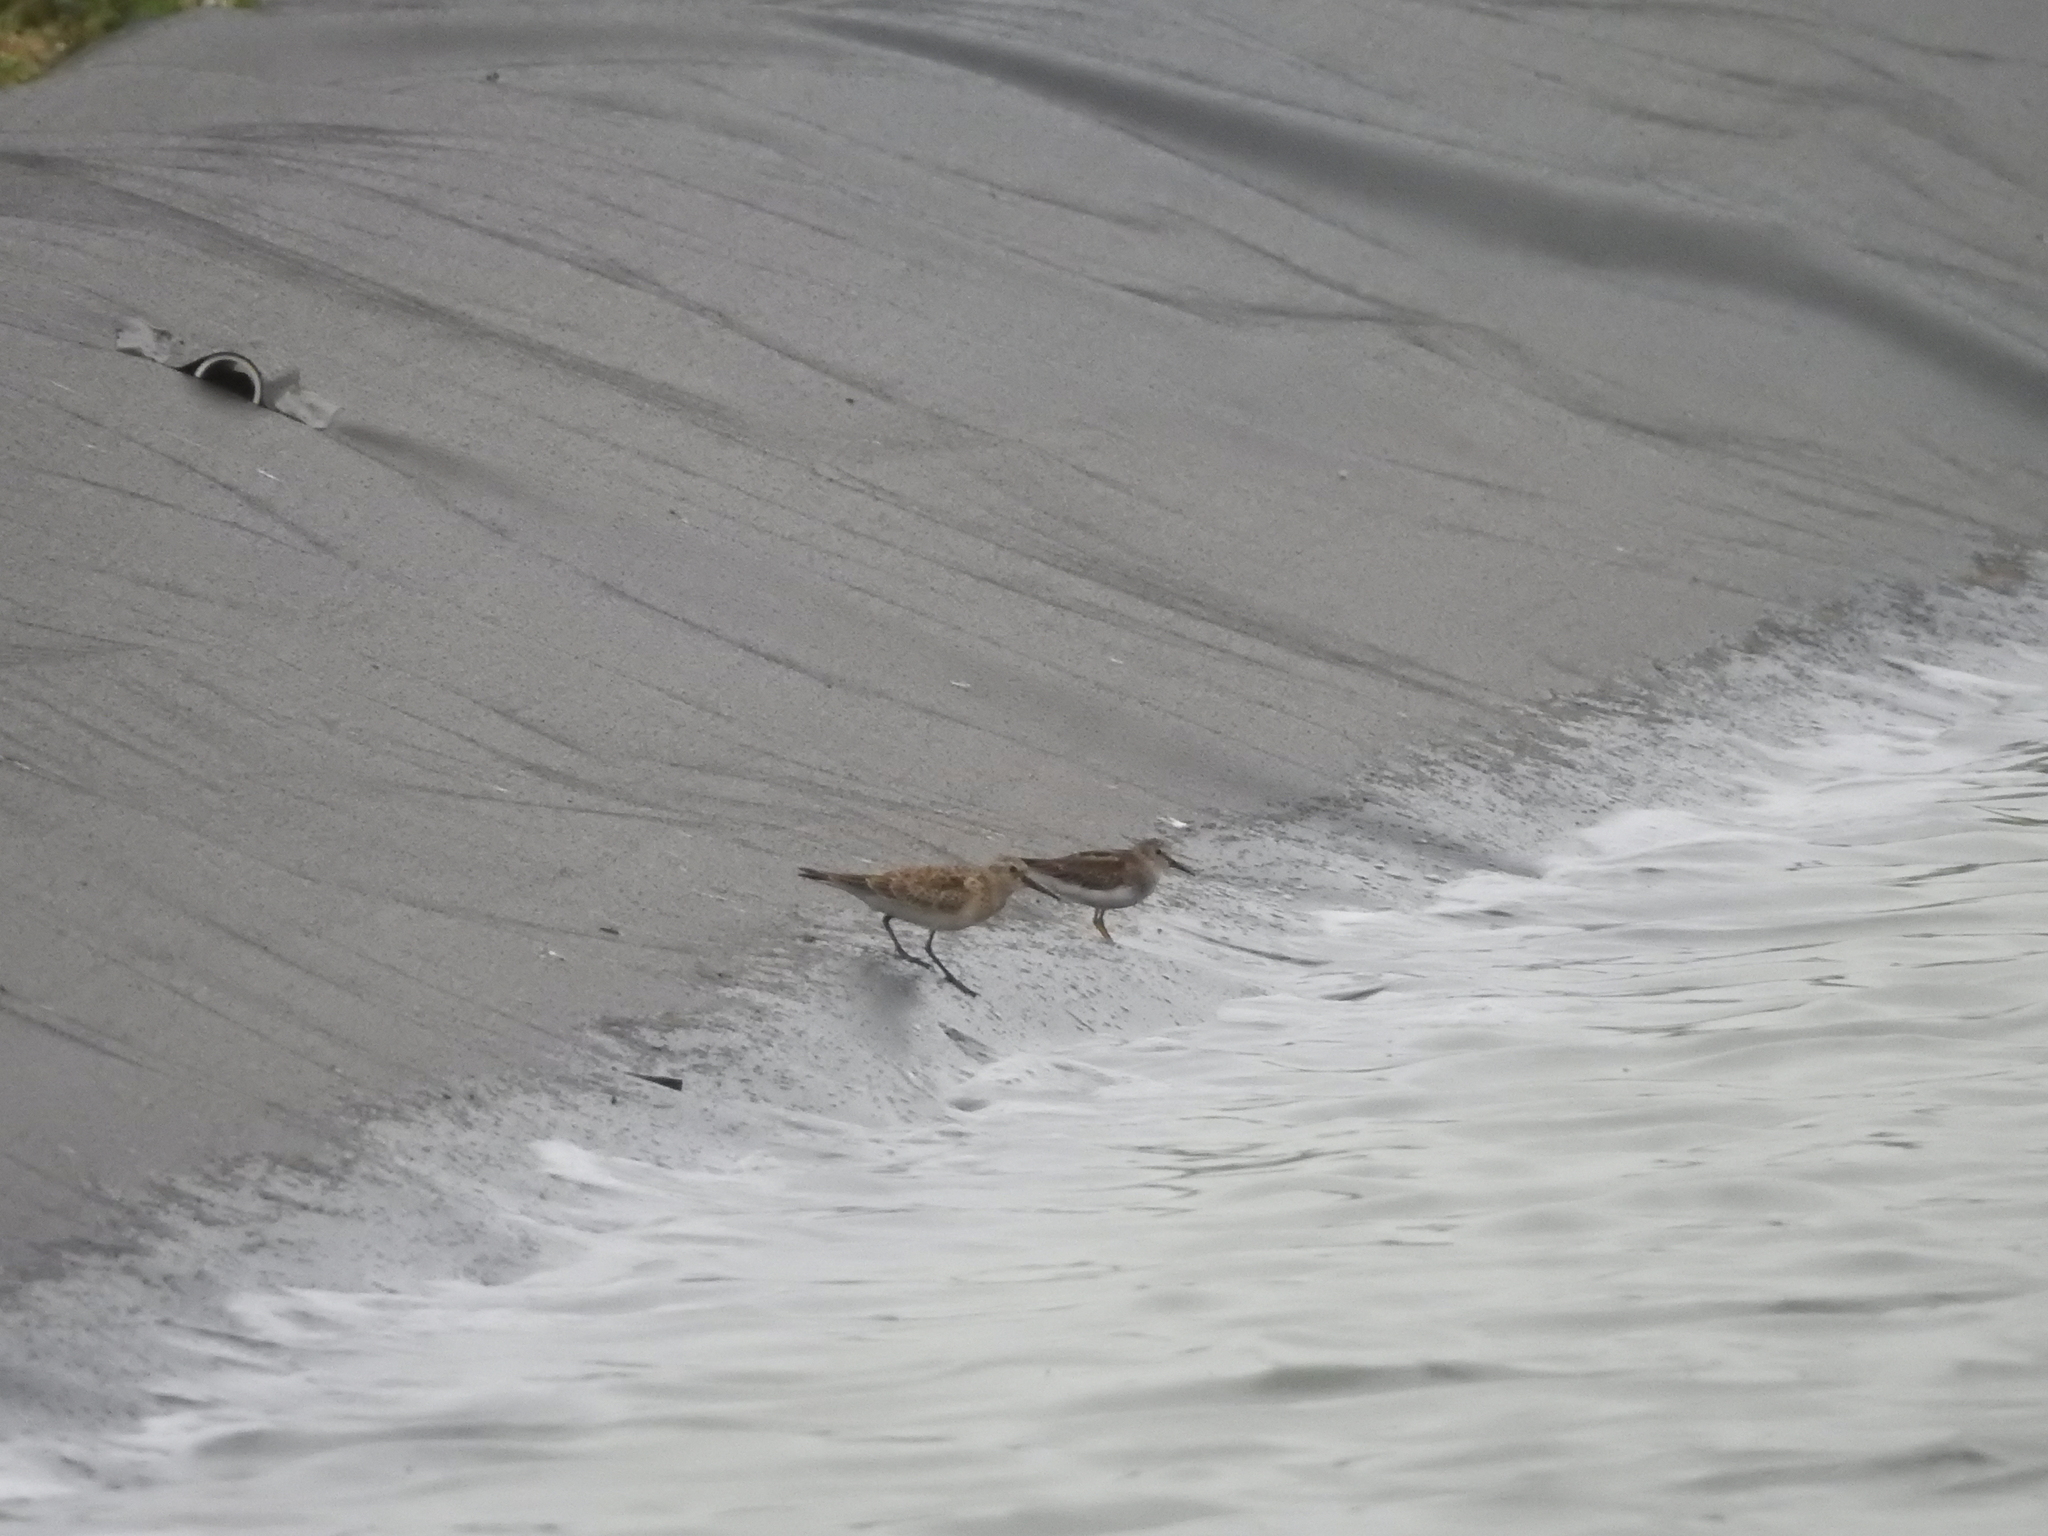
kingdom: Animalia
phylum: Chordata
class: Aves
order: Charadriiformes
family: Scolopacidae
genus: Calidris
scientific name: Calidris bairdii
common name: Baird's sandpiper
